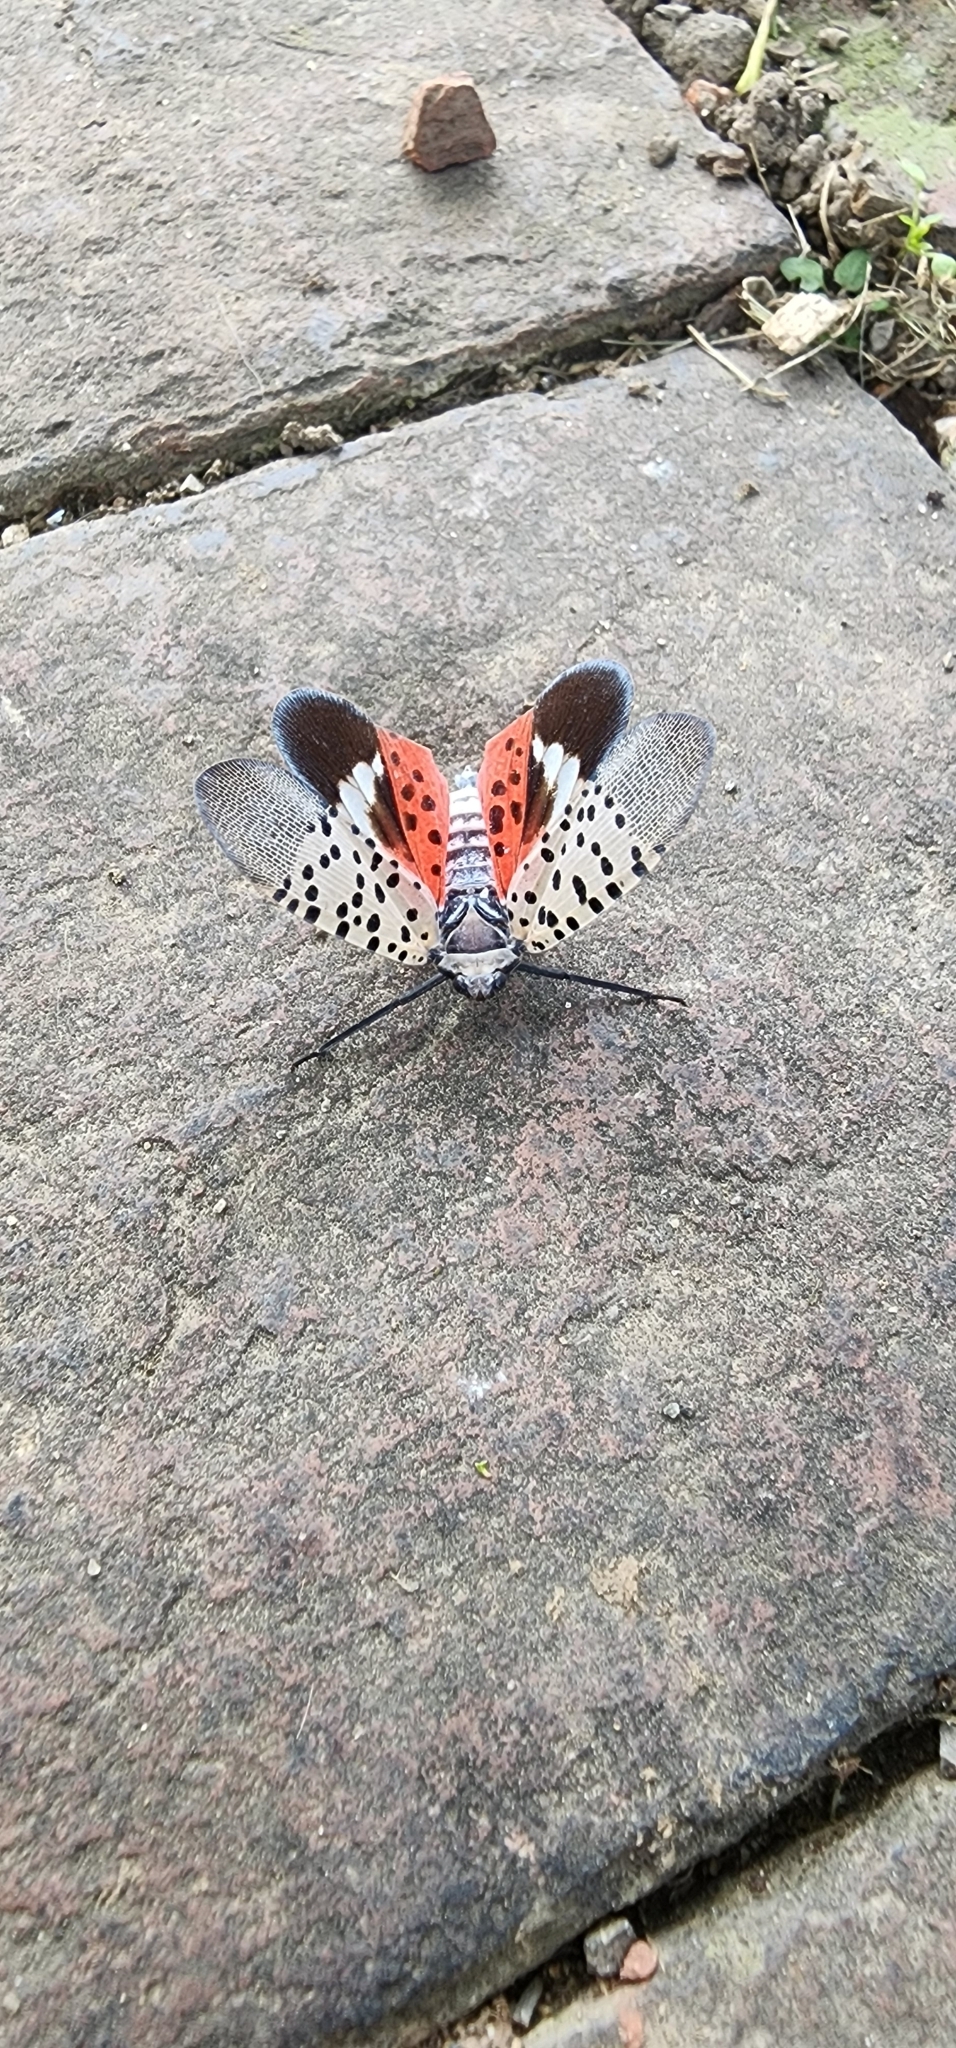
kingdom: Animalia
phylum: Arthropoda
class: Insecta
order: Hemiptera
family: Fulgoridae
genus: Lycorma
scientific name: Lycorma delicatula
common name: Spotted lanternfly
